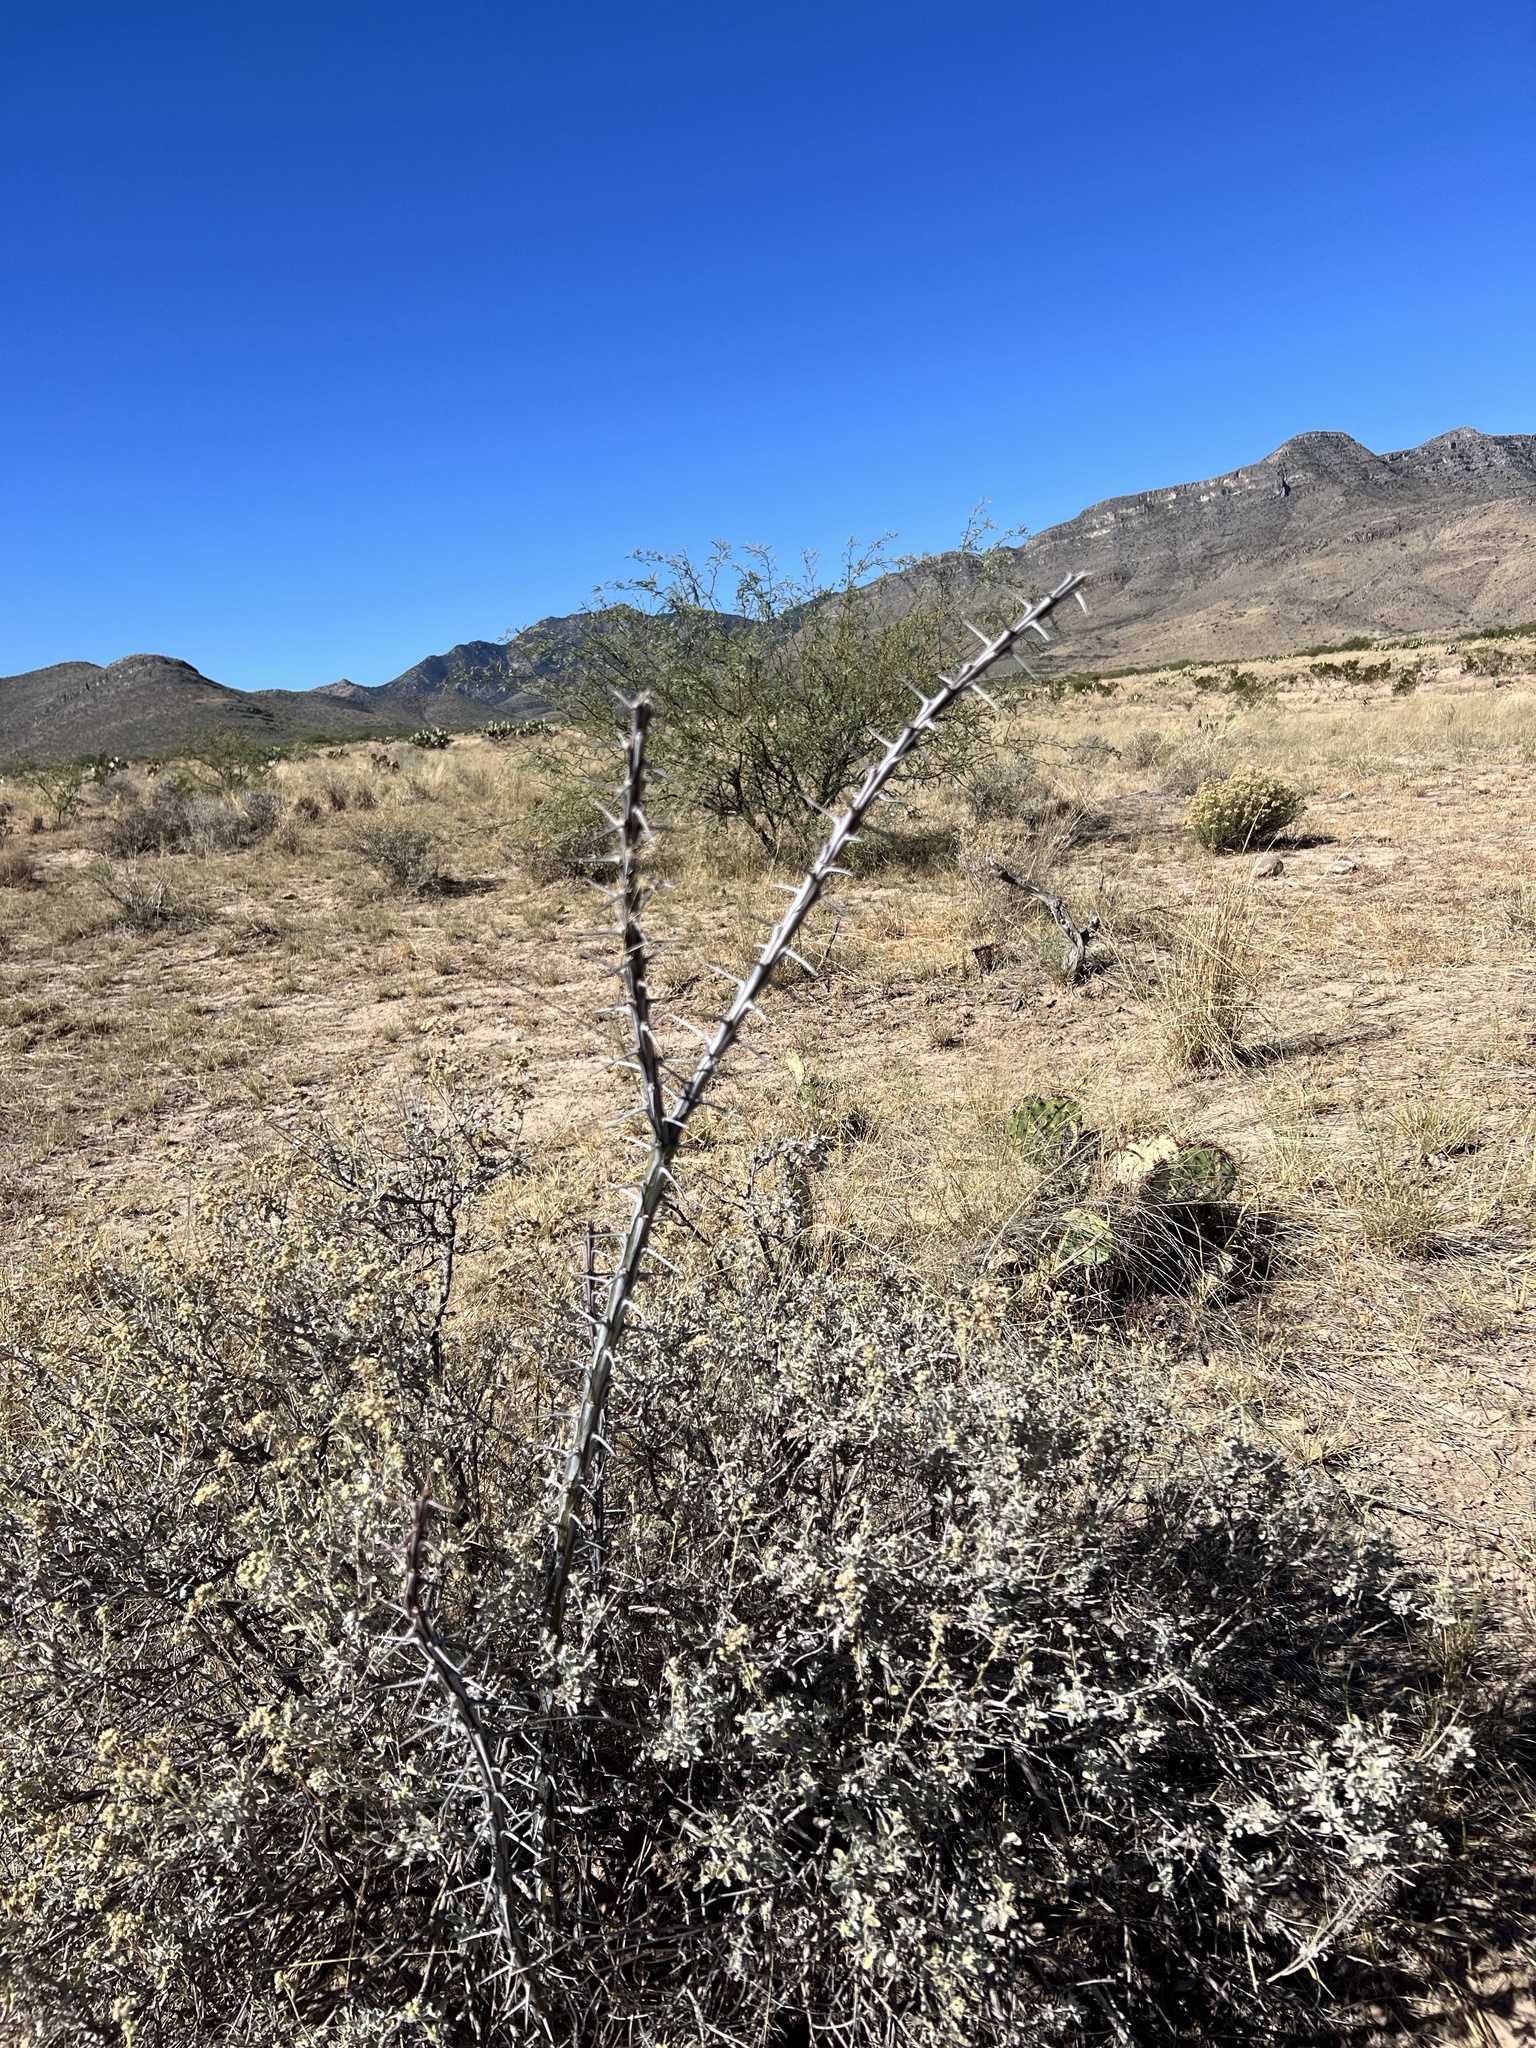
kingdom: Plantae
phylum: Tracheophyta
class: Magnoliopsida
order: Ericales
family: Fouquieriaceae
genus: Fouquieria
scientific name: Fouquieria splendens
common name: Vine-cactus
